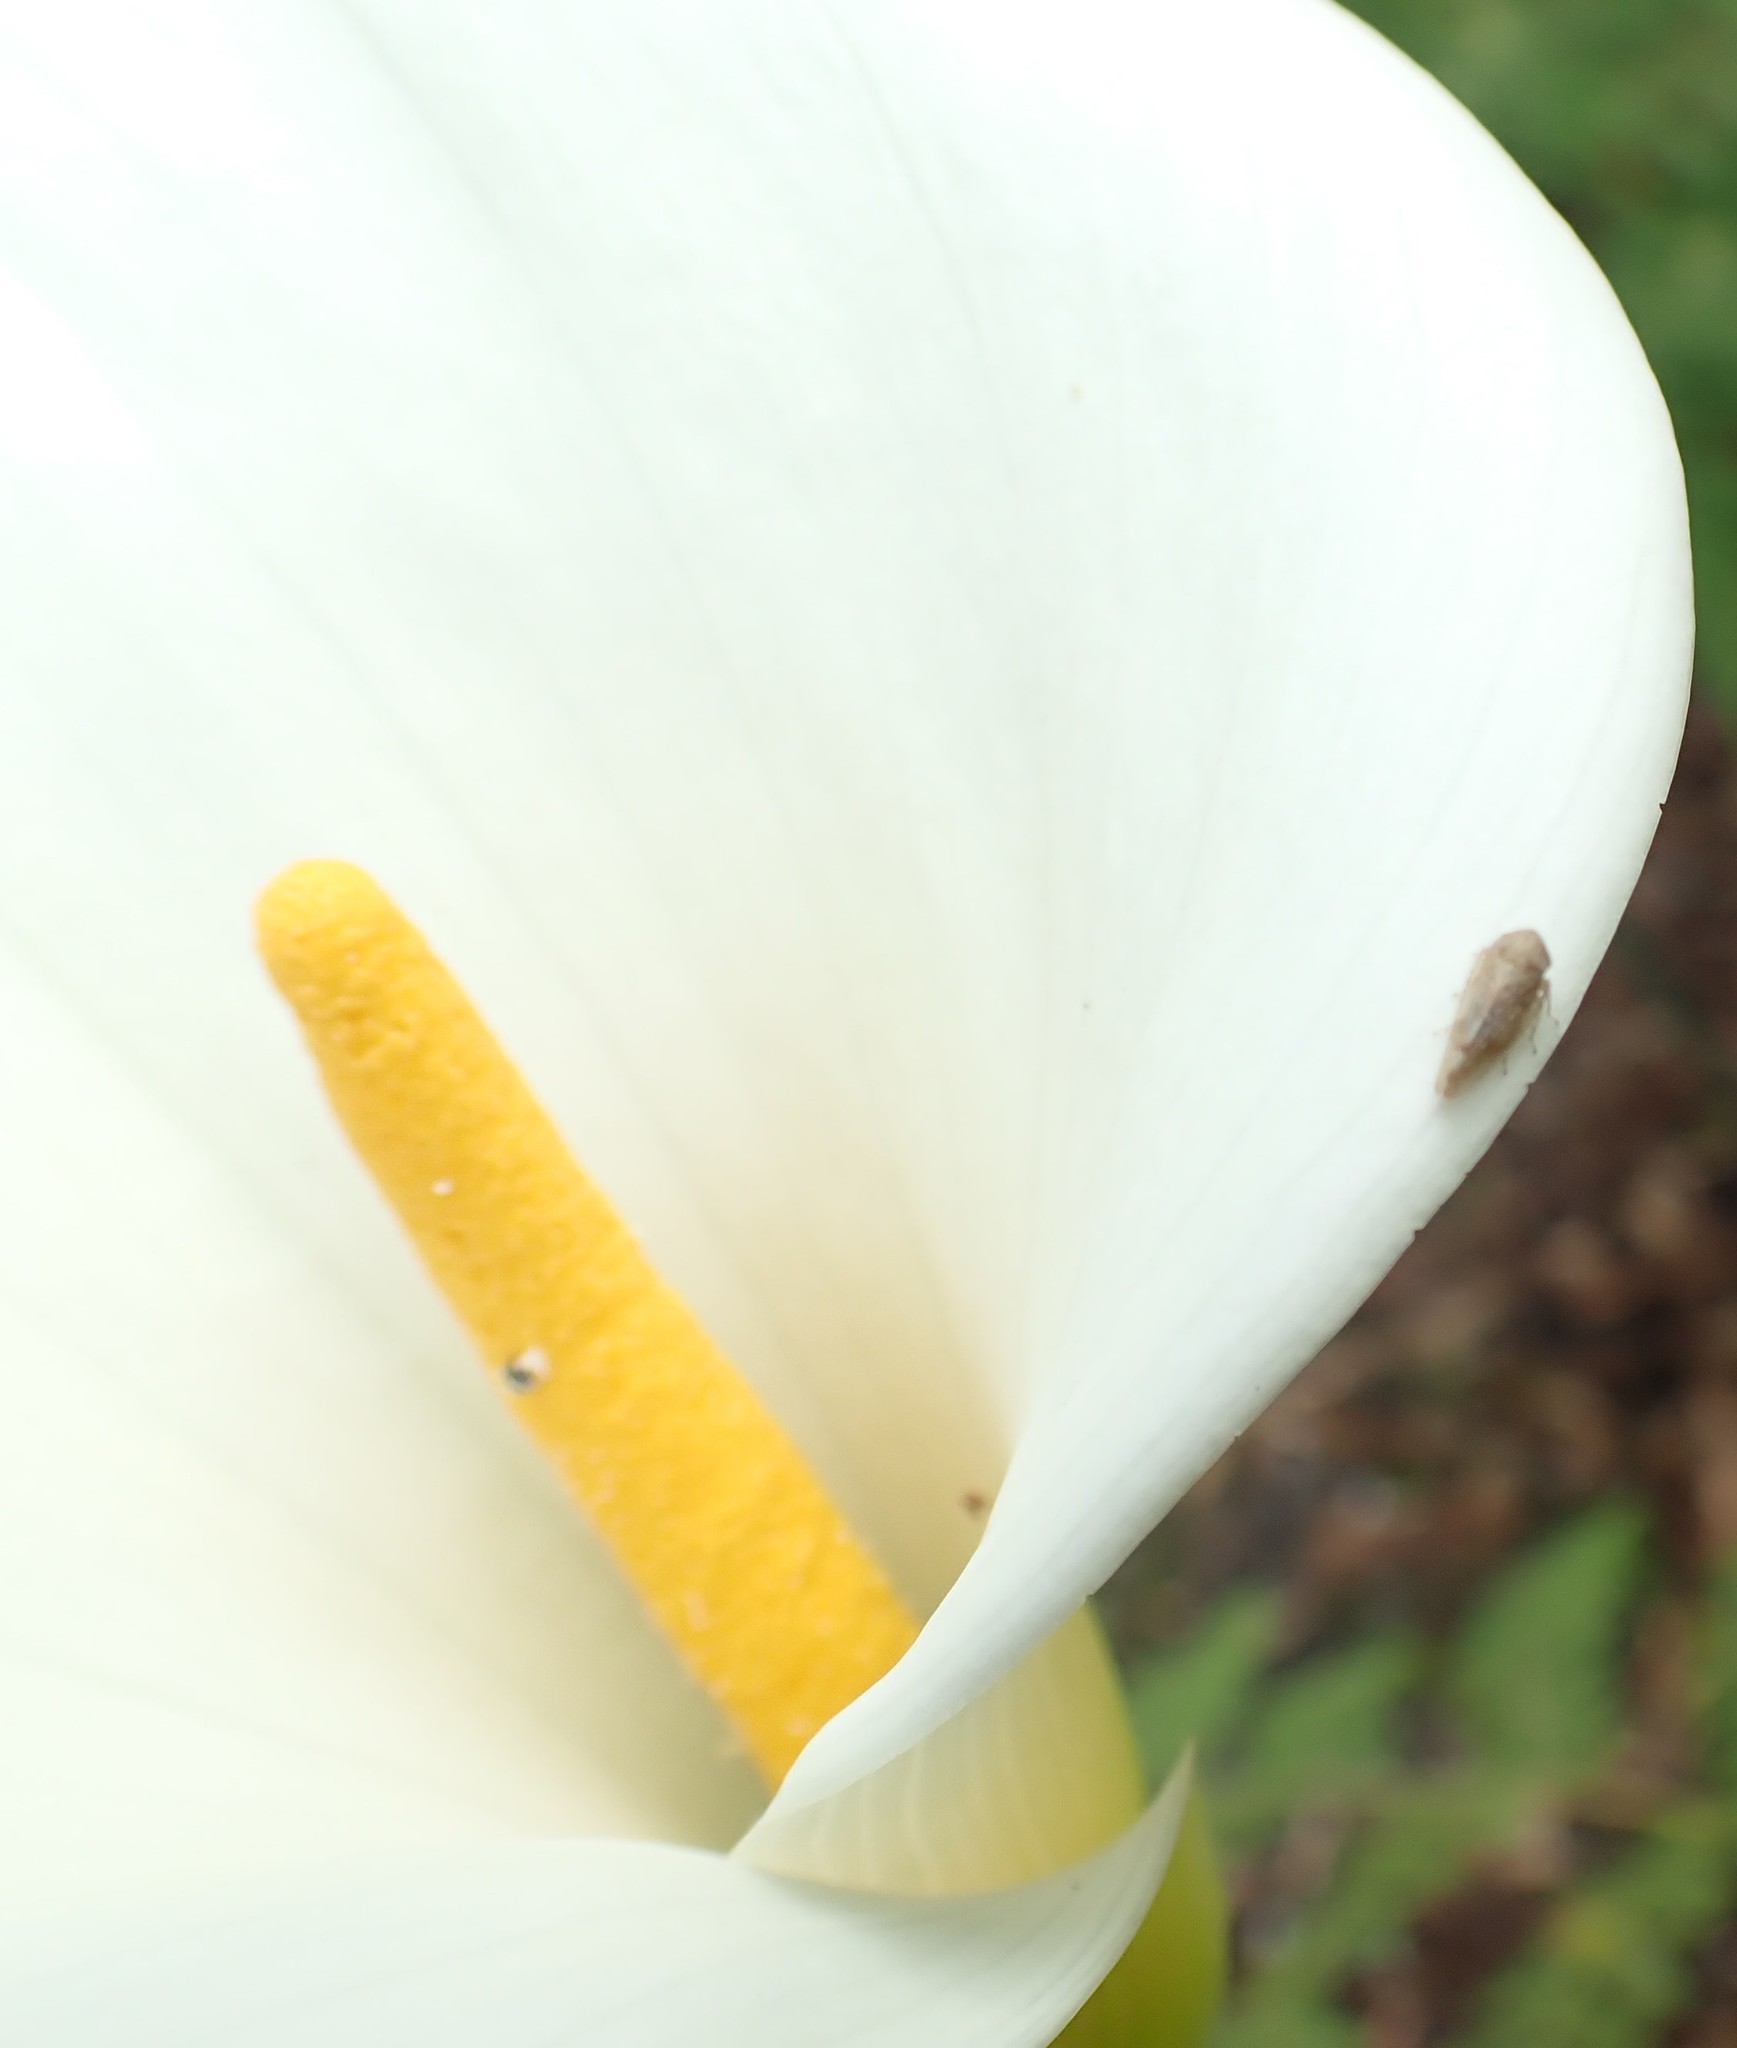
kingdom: Plantae
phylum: Tracheophyta
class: Liliopsida
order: Alismatales
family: Araceae
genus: Zantedeschia
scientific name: Zantedeschia aethiopica
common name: Altar-lily
